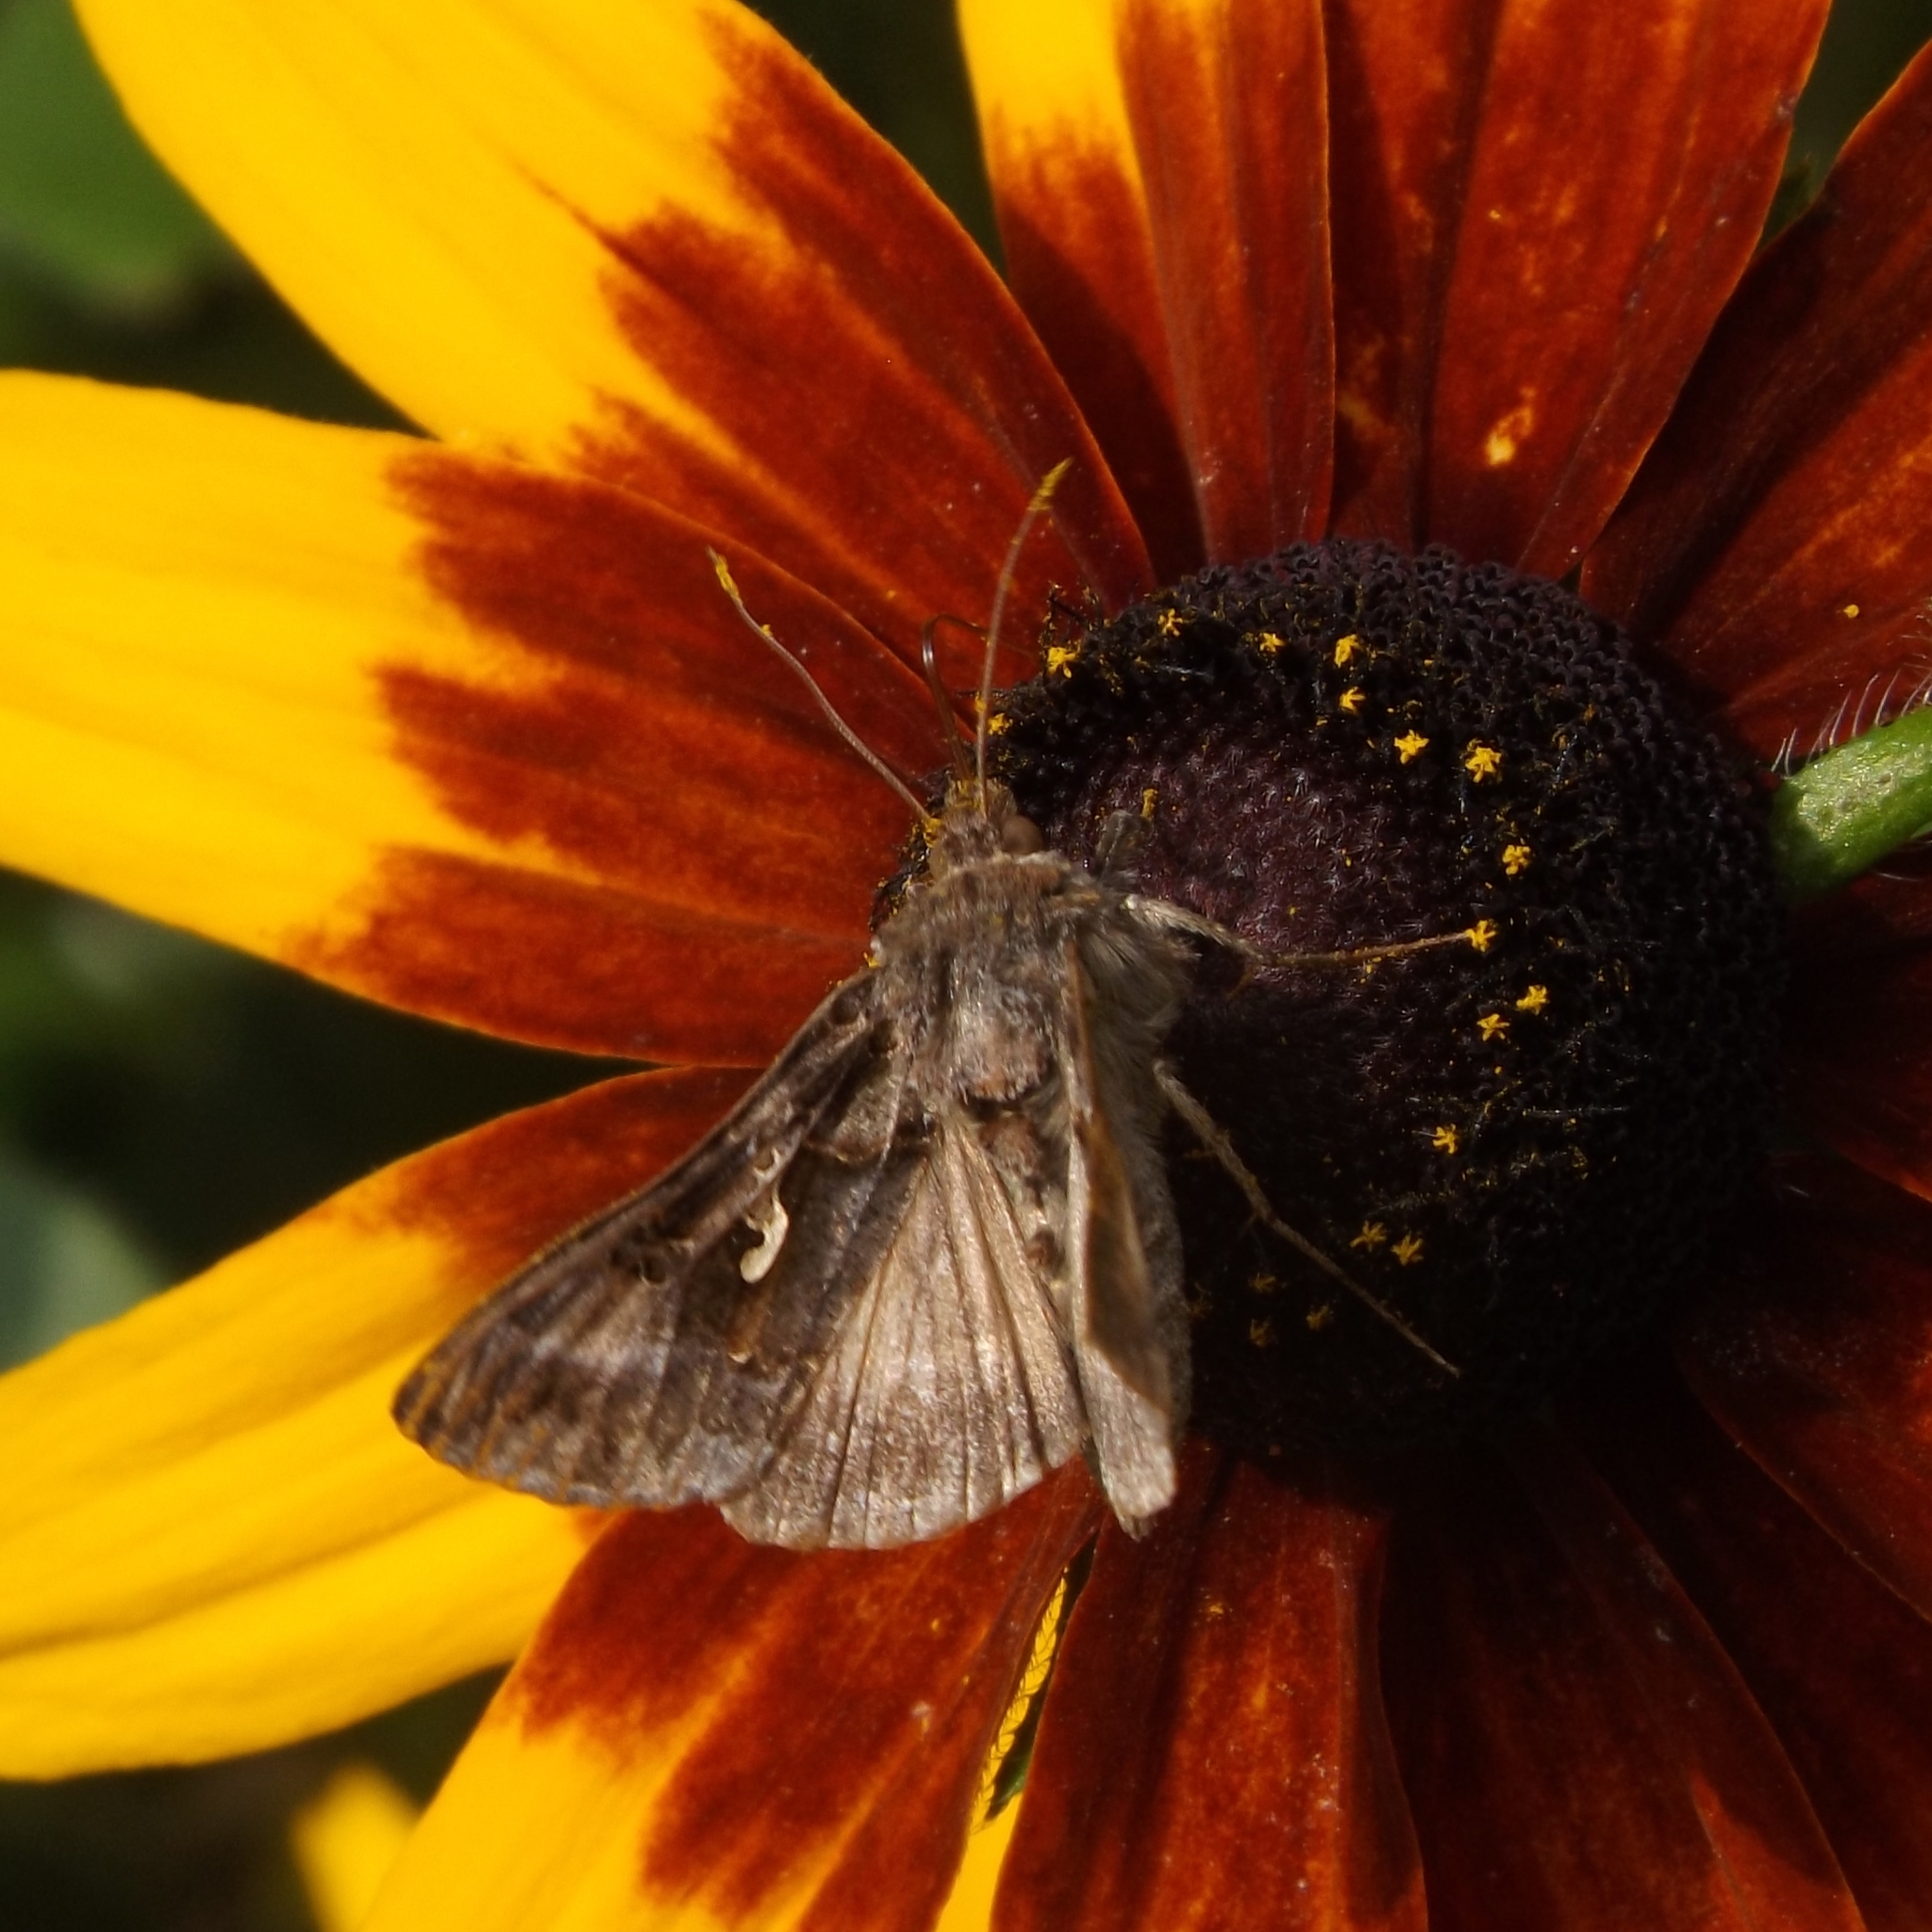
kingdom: Animalia
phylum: Arthropoda
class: Insecta
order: Lepidoptera
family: Noctuidae
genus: Autographa
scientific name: Autographa gamma
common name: Silver y
